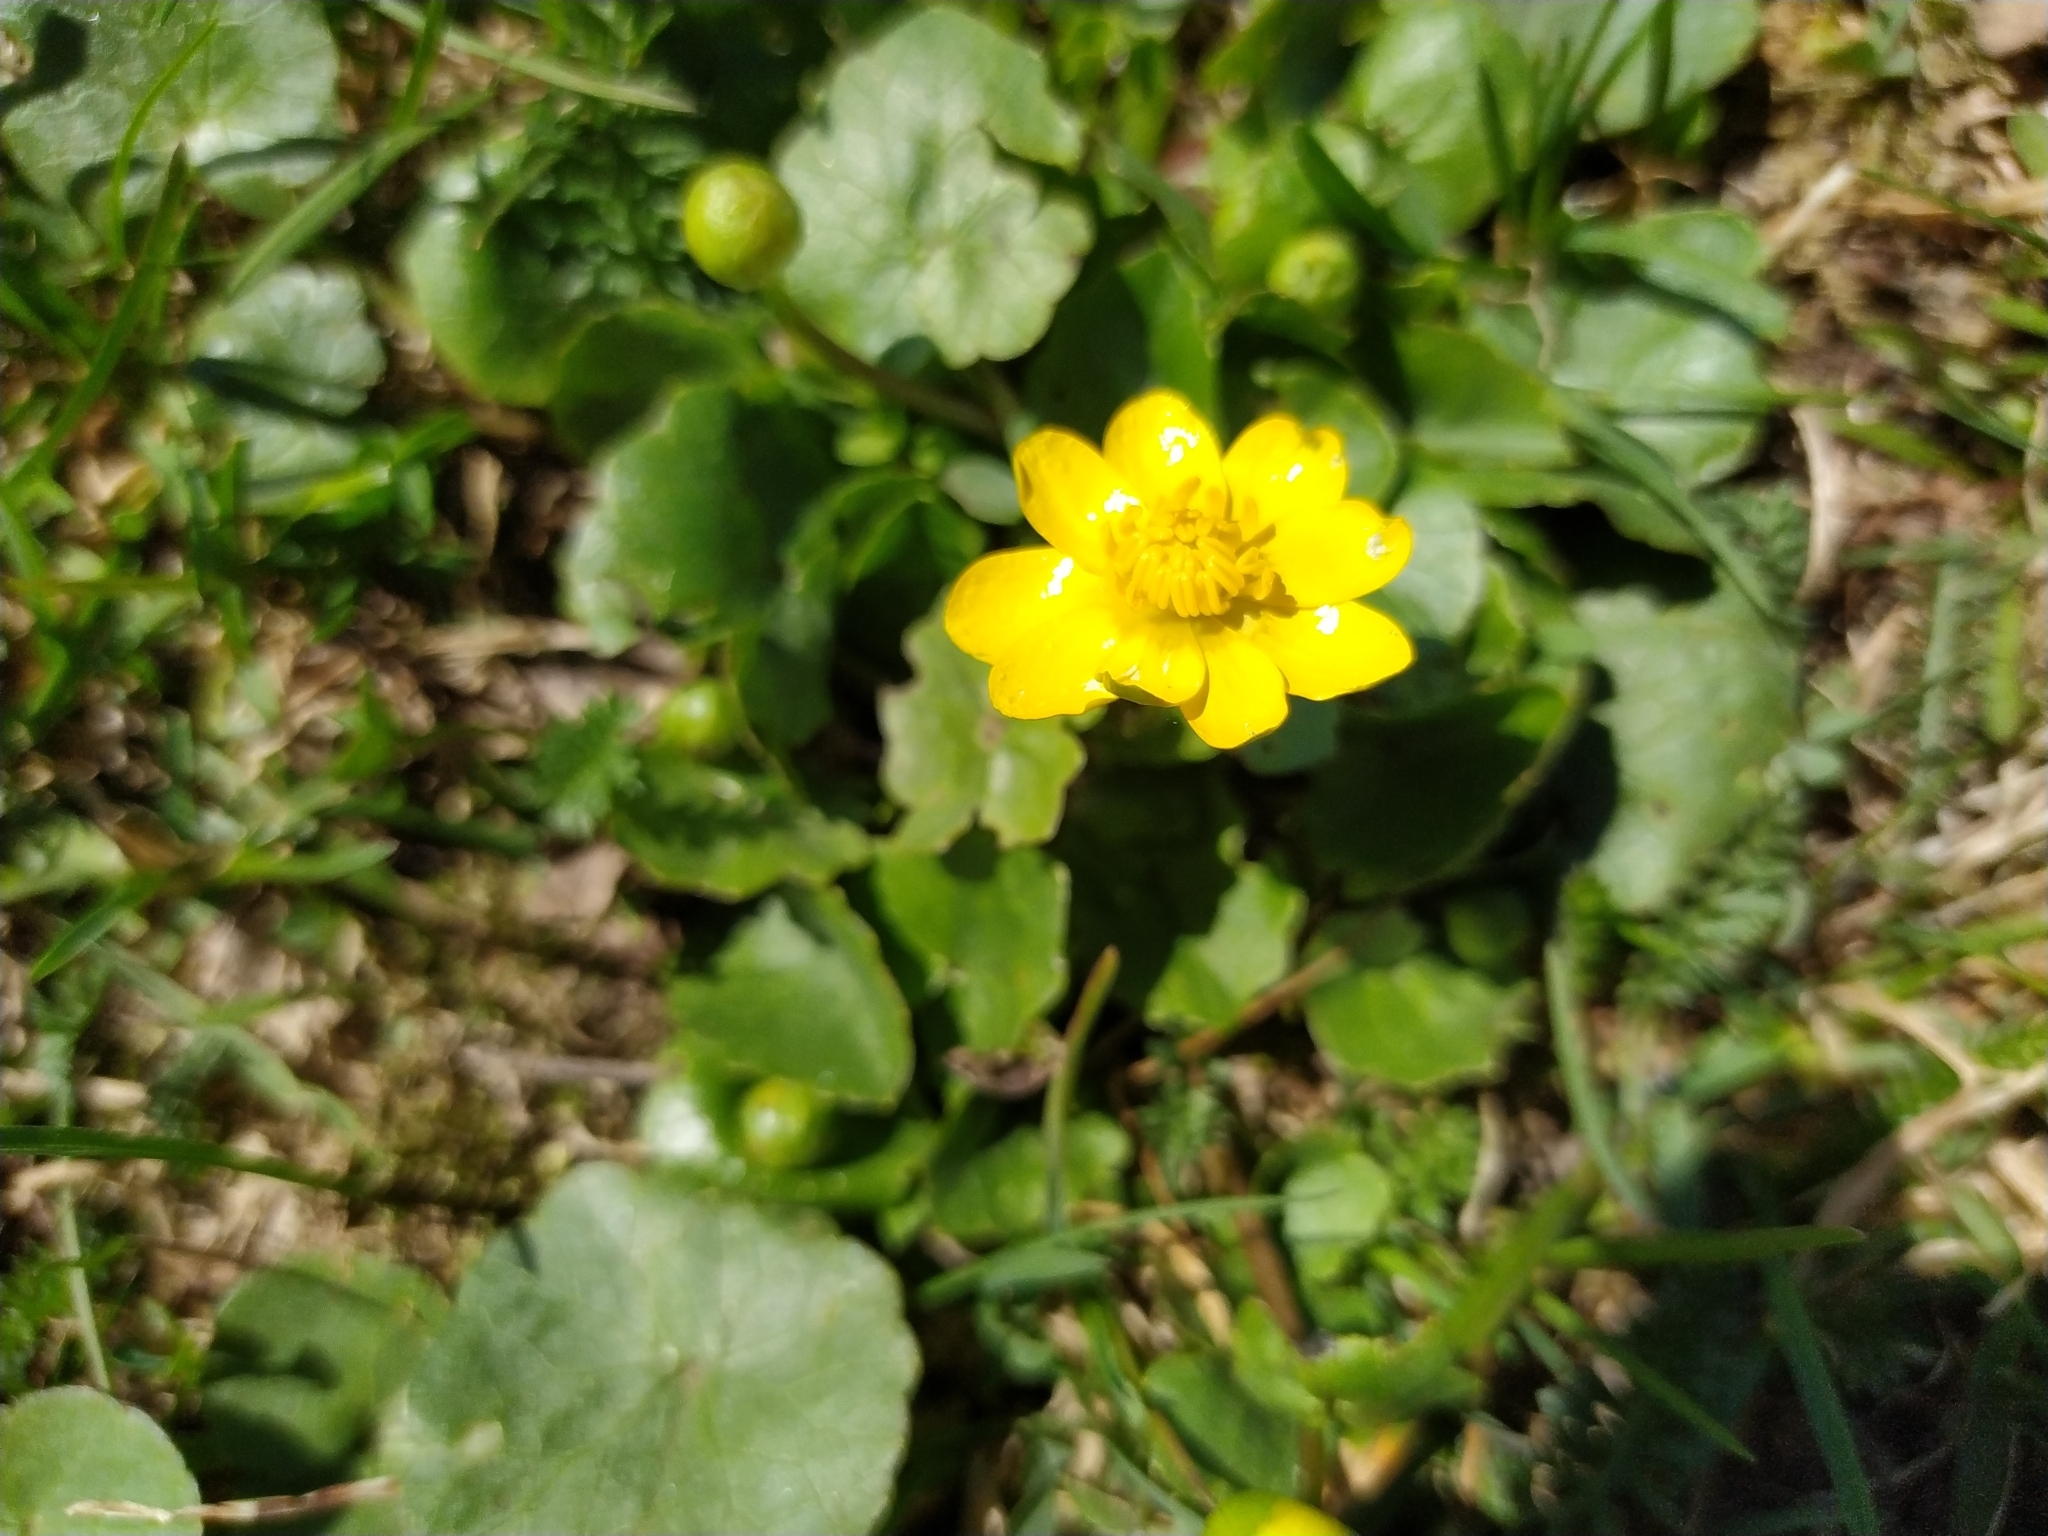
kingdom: Plantae
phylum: Tracheophyta
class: Magnoliopsida
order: Ranunculales
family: Ranunculaceae
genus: Ficaria
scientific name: Ficaria verna
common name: Lesser celandine
